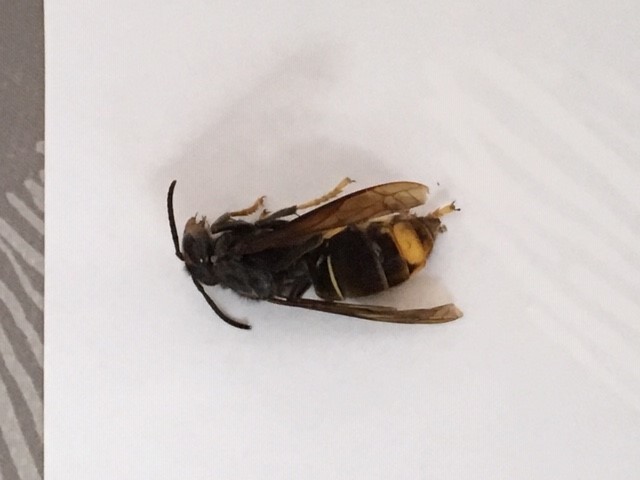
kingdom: Animalia
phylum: Arthropoda
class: Insecta
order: Hymenoptera
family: Vespidae
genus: Vespa
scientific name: Vespa velutina
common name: Asian hornet
